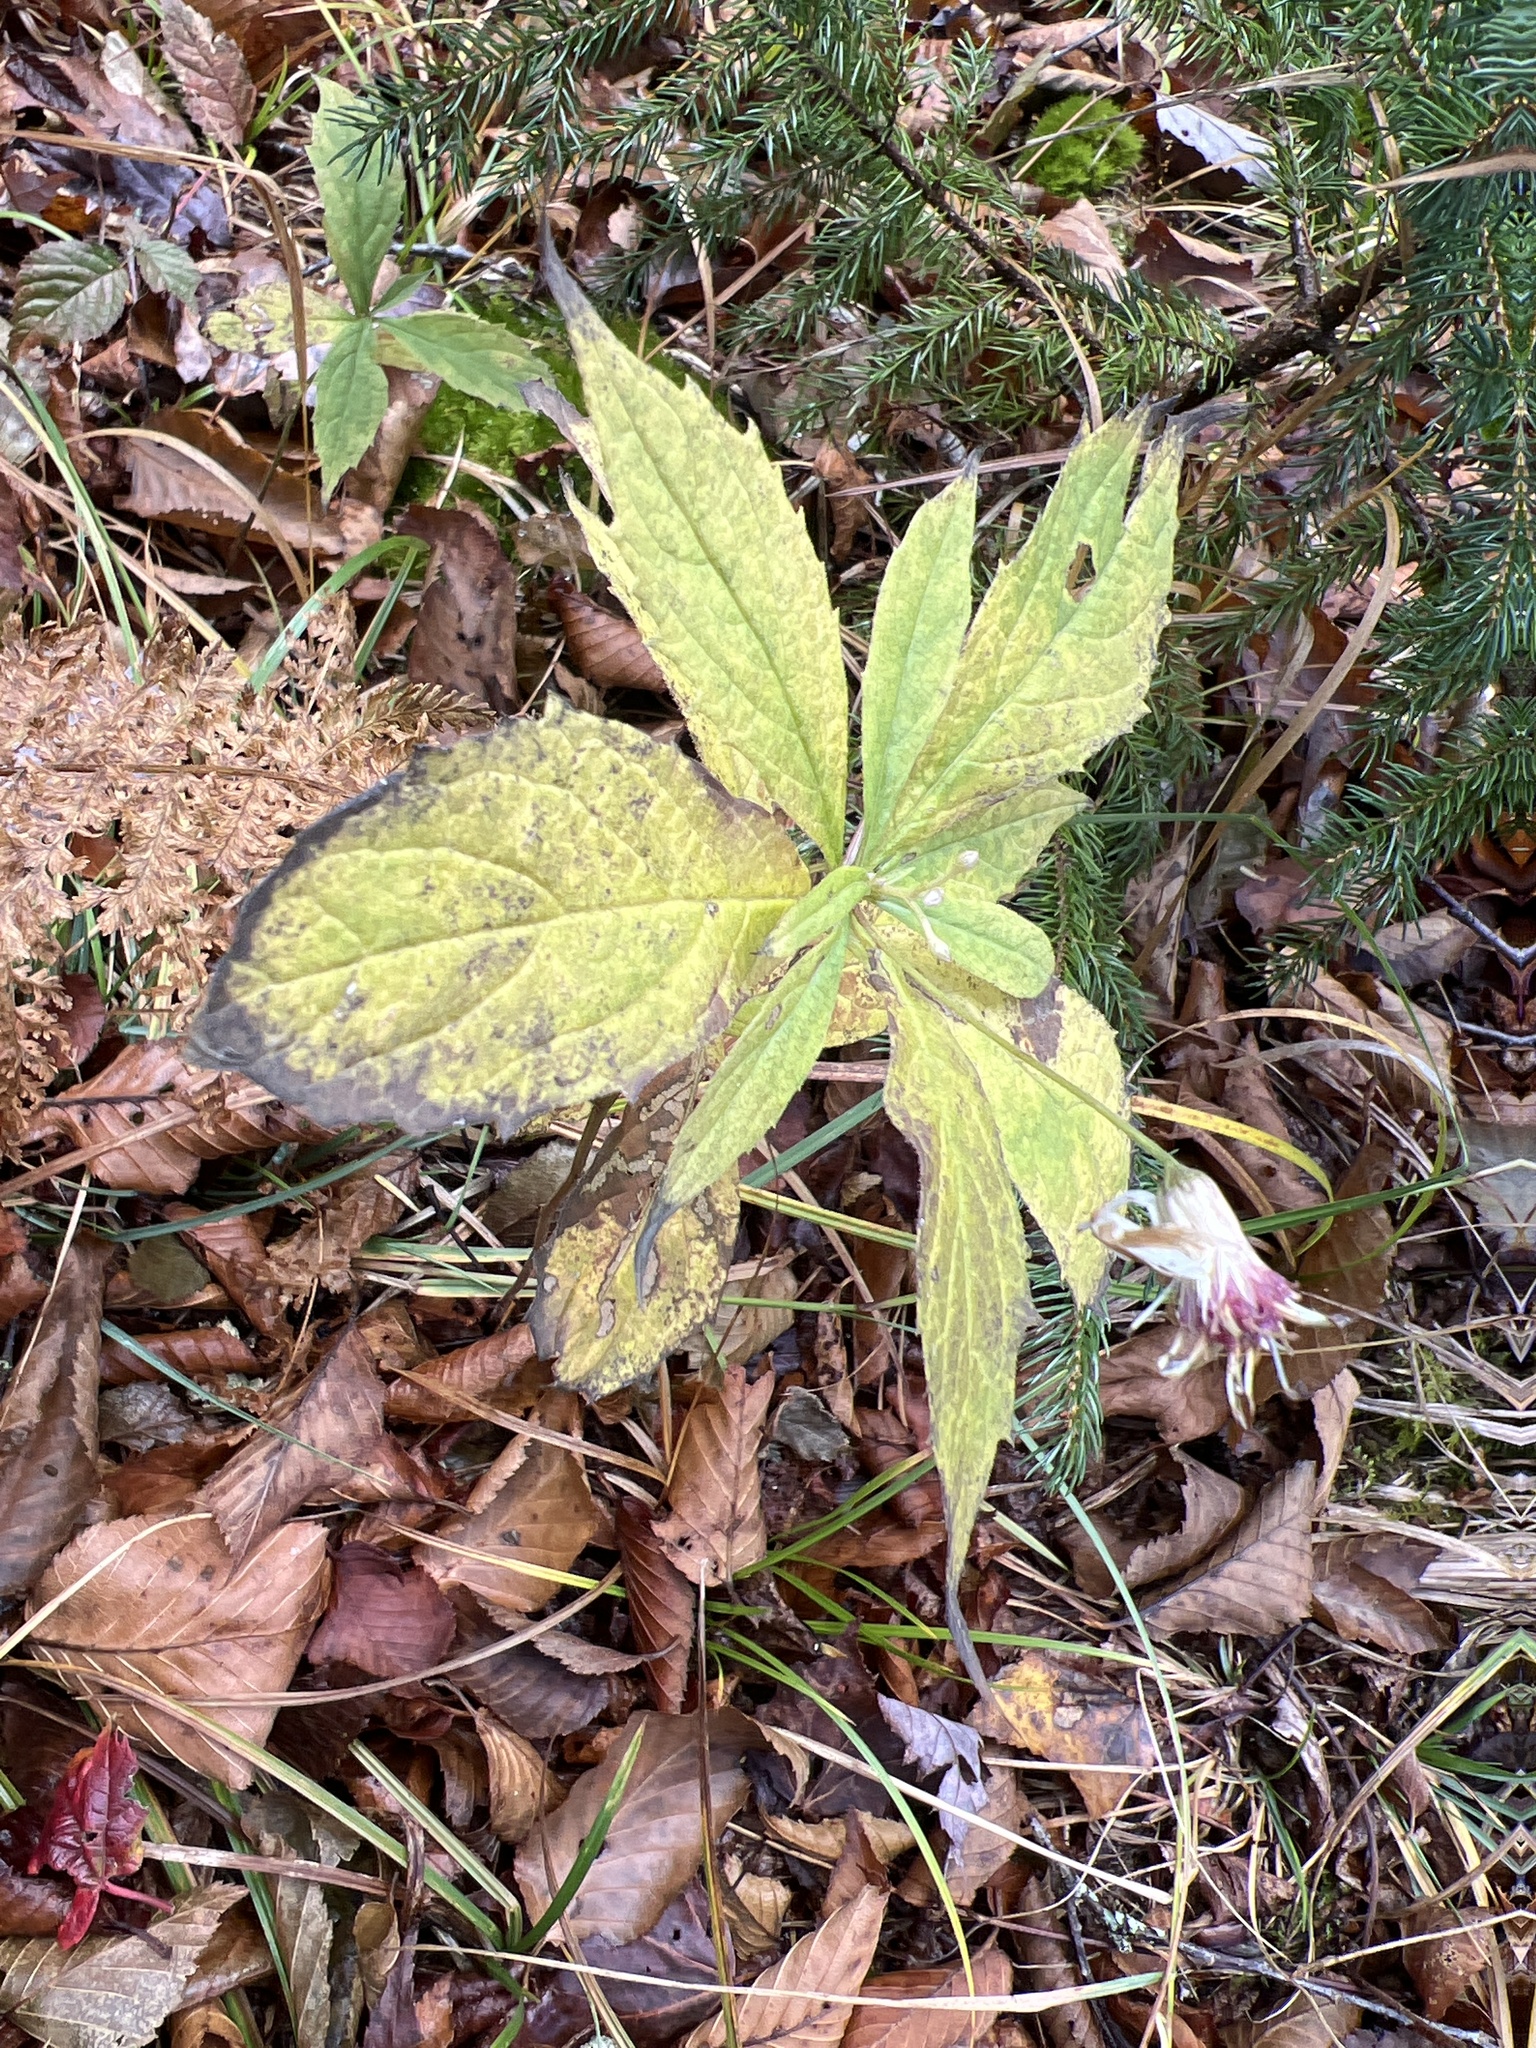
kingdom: Plantae
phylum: Tracheophyta
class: Magnoliopsida
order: Asterales
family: Asteraceae
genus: Oclemena
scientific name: Oclemena acuminata
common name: Mountain aster
